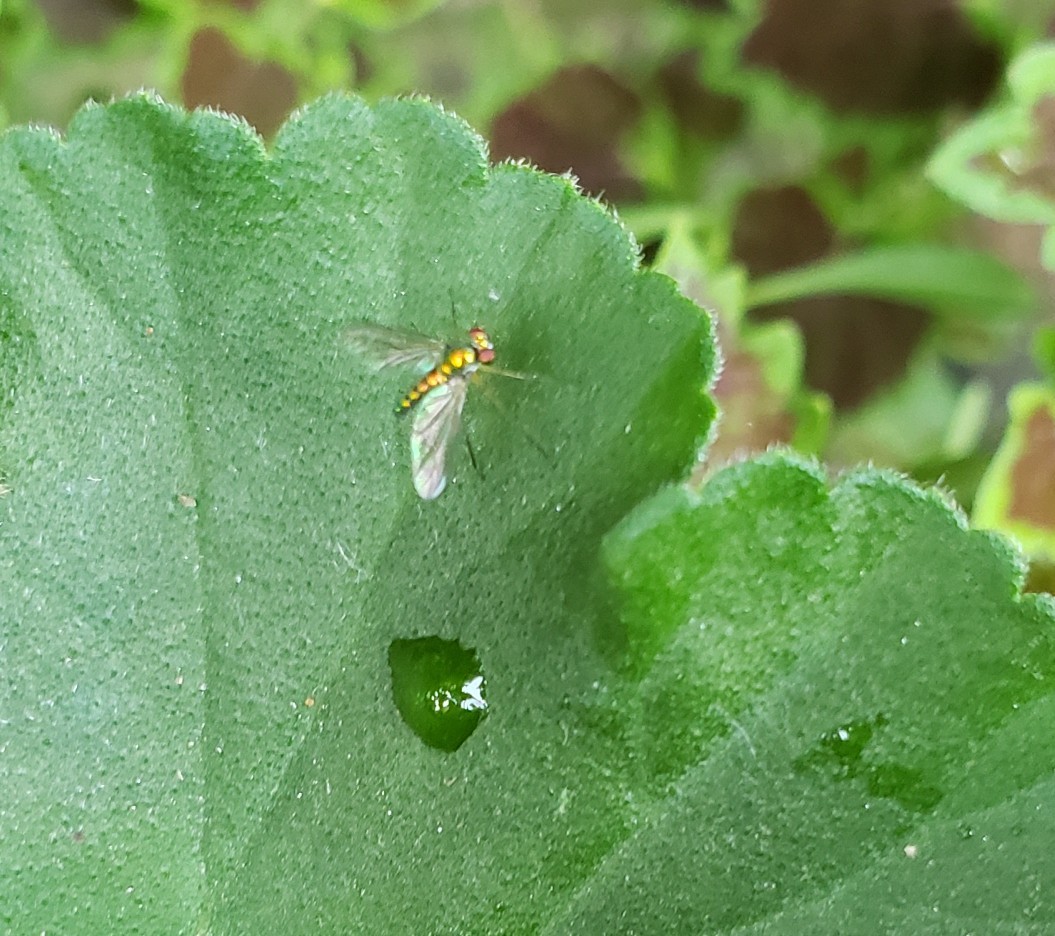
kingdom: Animalia
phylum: Arthropoda
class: Insecta
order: Diptera
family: Dolichopodidae
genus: Amblypsilopus
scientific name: Amblypsilopus scintillans
